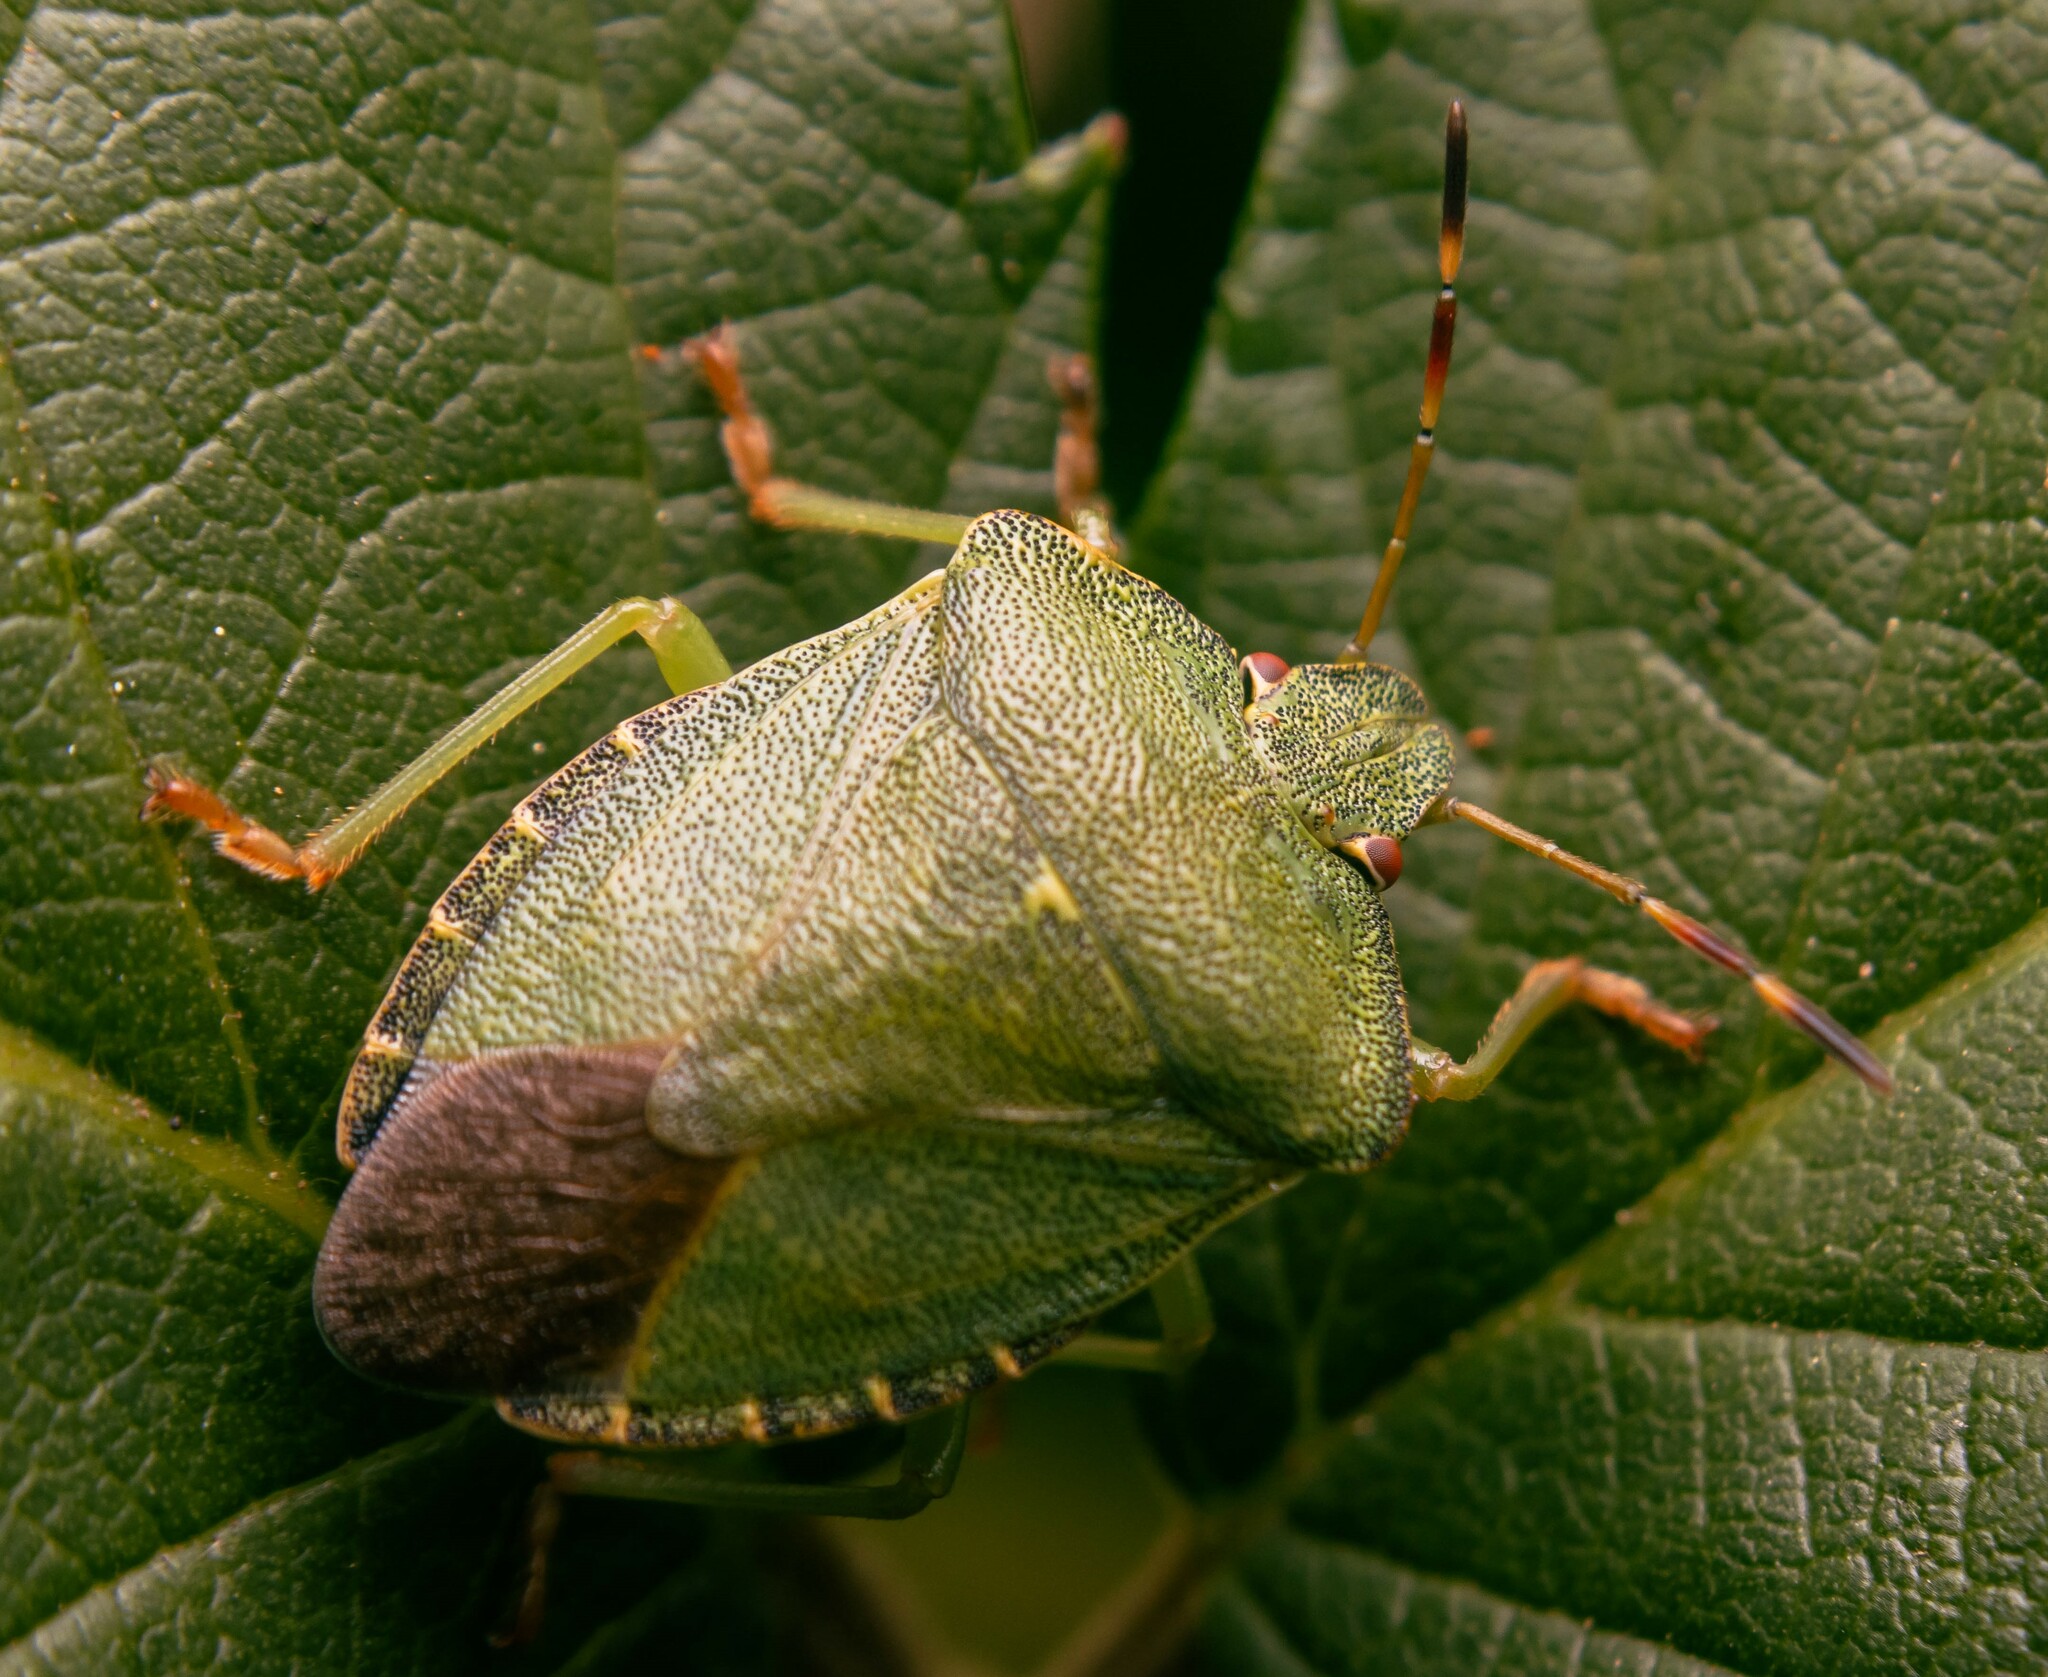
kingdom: Animalia
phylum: Arthropoda
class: Insecta
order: Hemiptera
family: Pentatomidae
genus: Palomena
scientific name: Palomena prasina
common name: Green shieldbug
